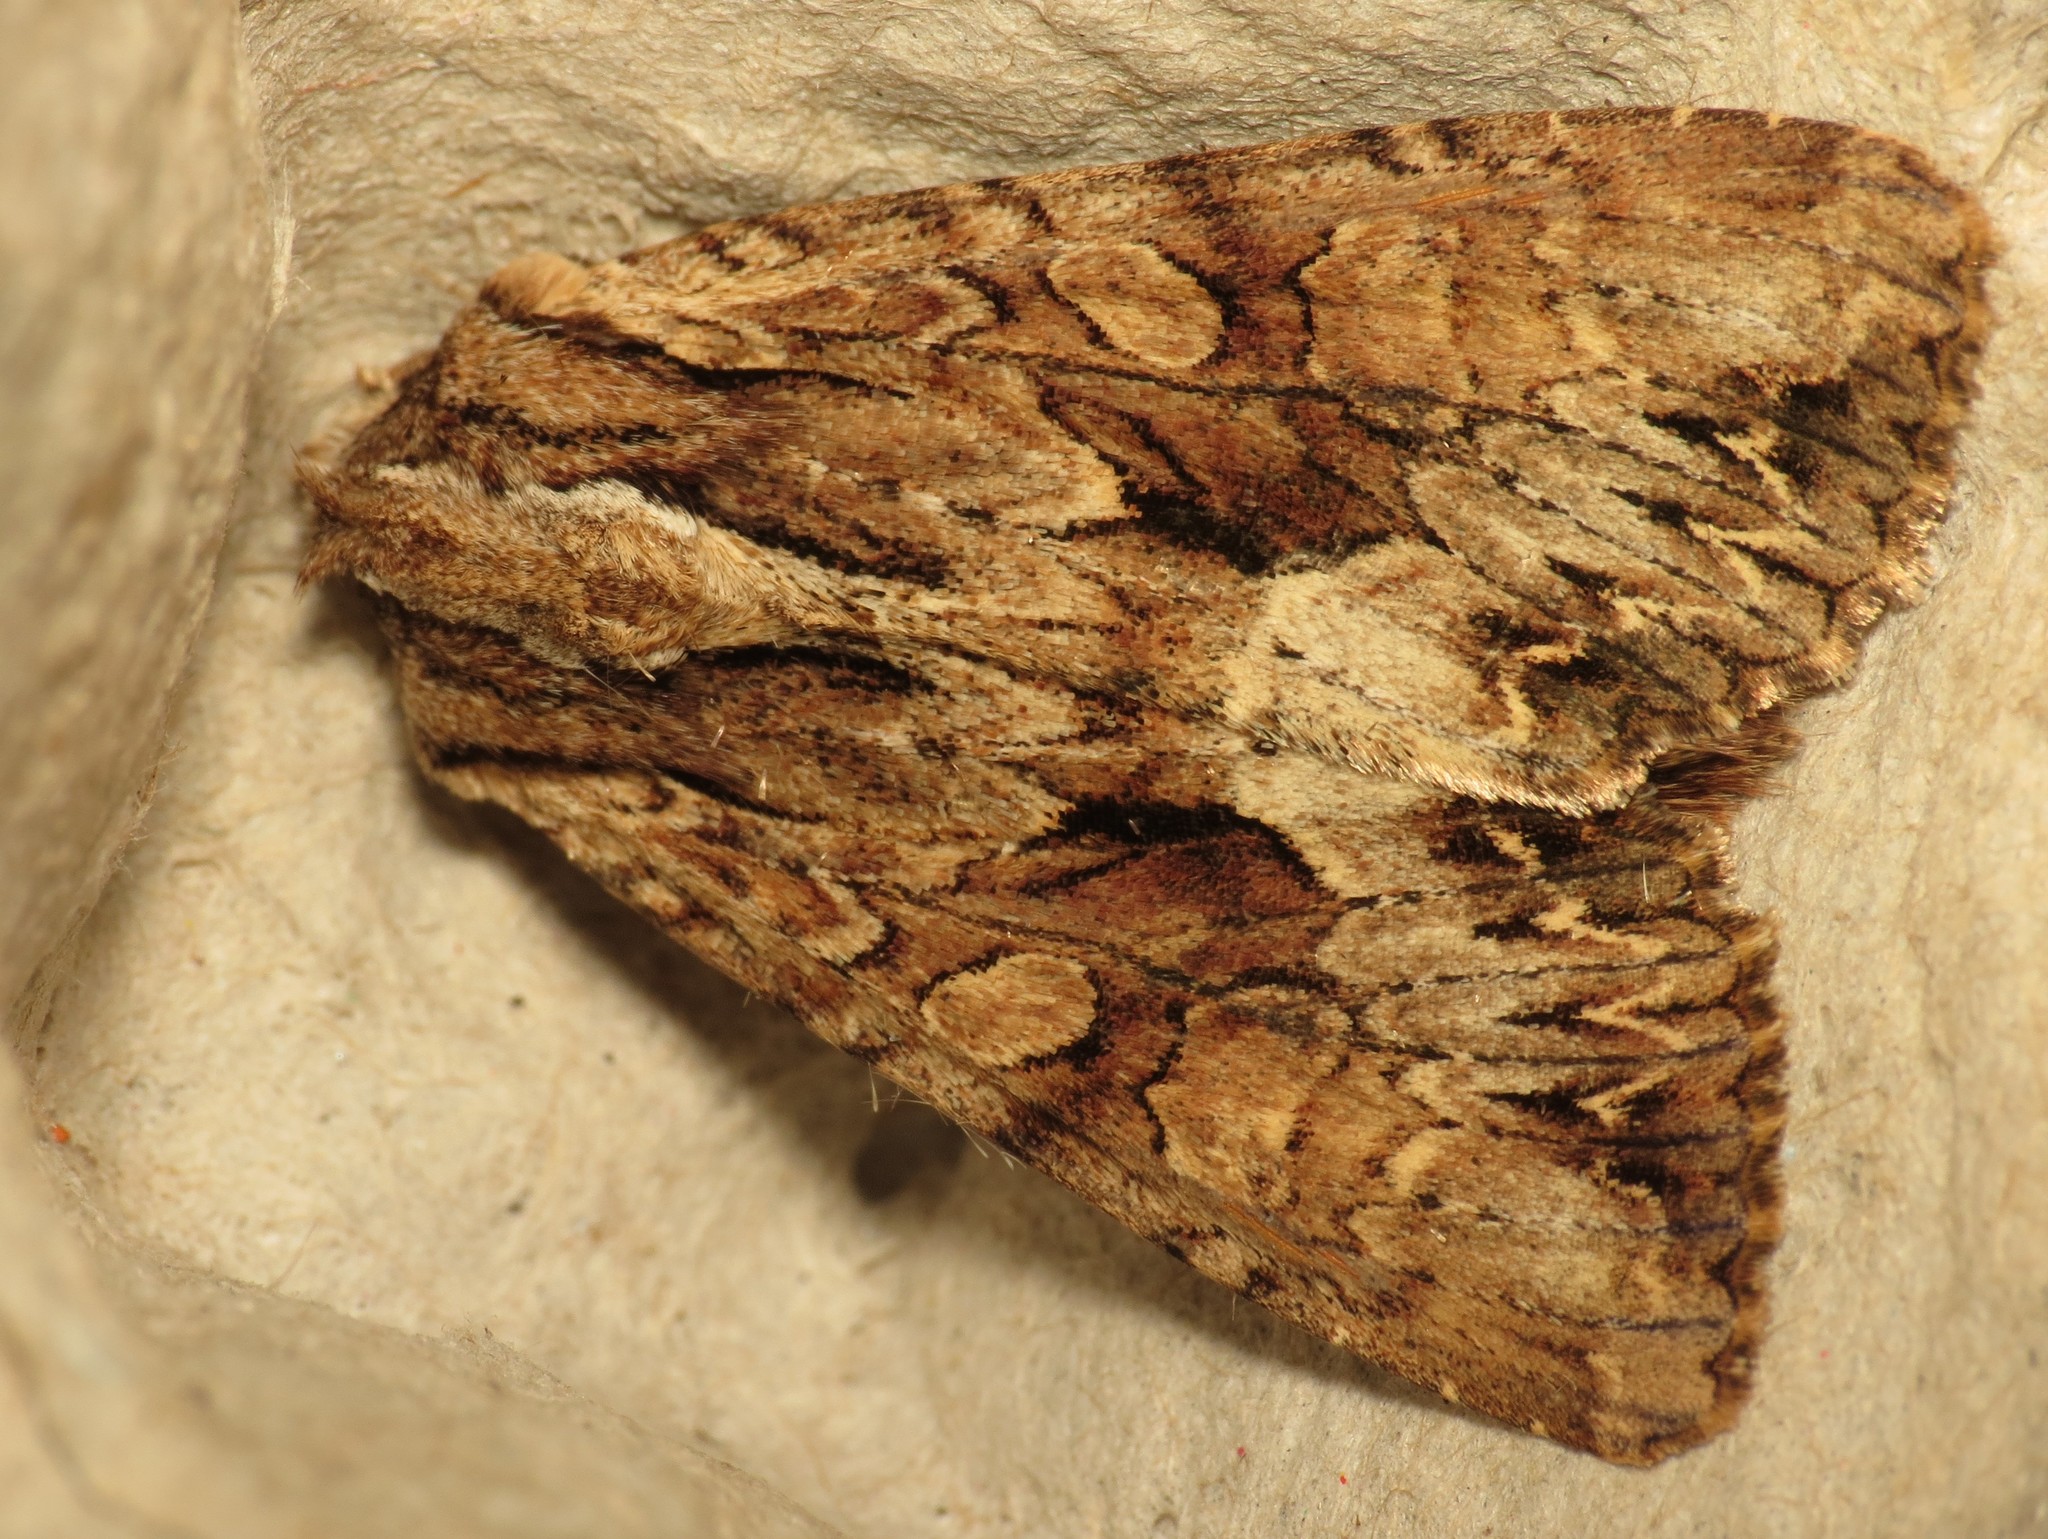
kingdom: Animalia
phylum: Arthropoda
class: Insecta
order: Lepidoptera
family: Noctuidae
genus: Apamea
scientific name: Apamea monoglypha
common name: Dark arches
